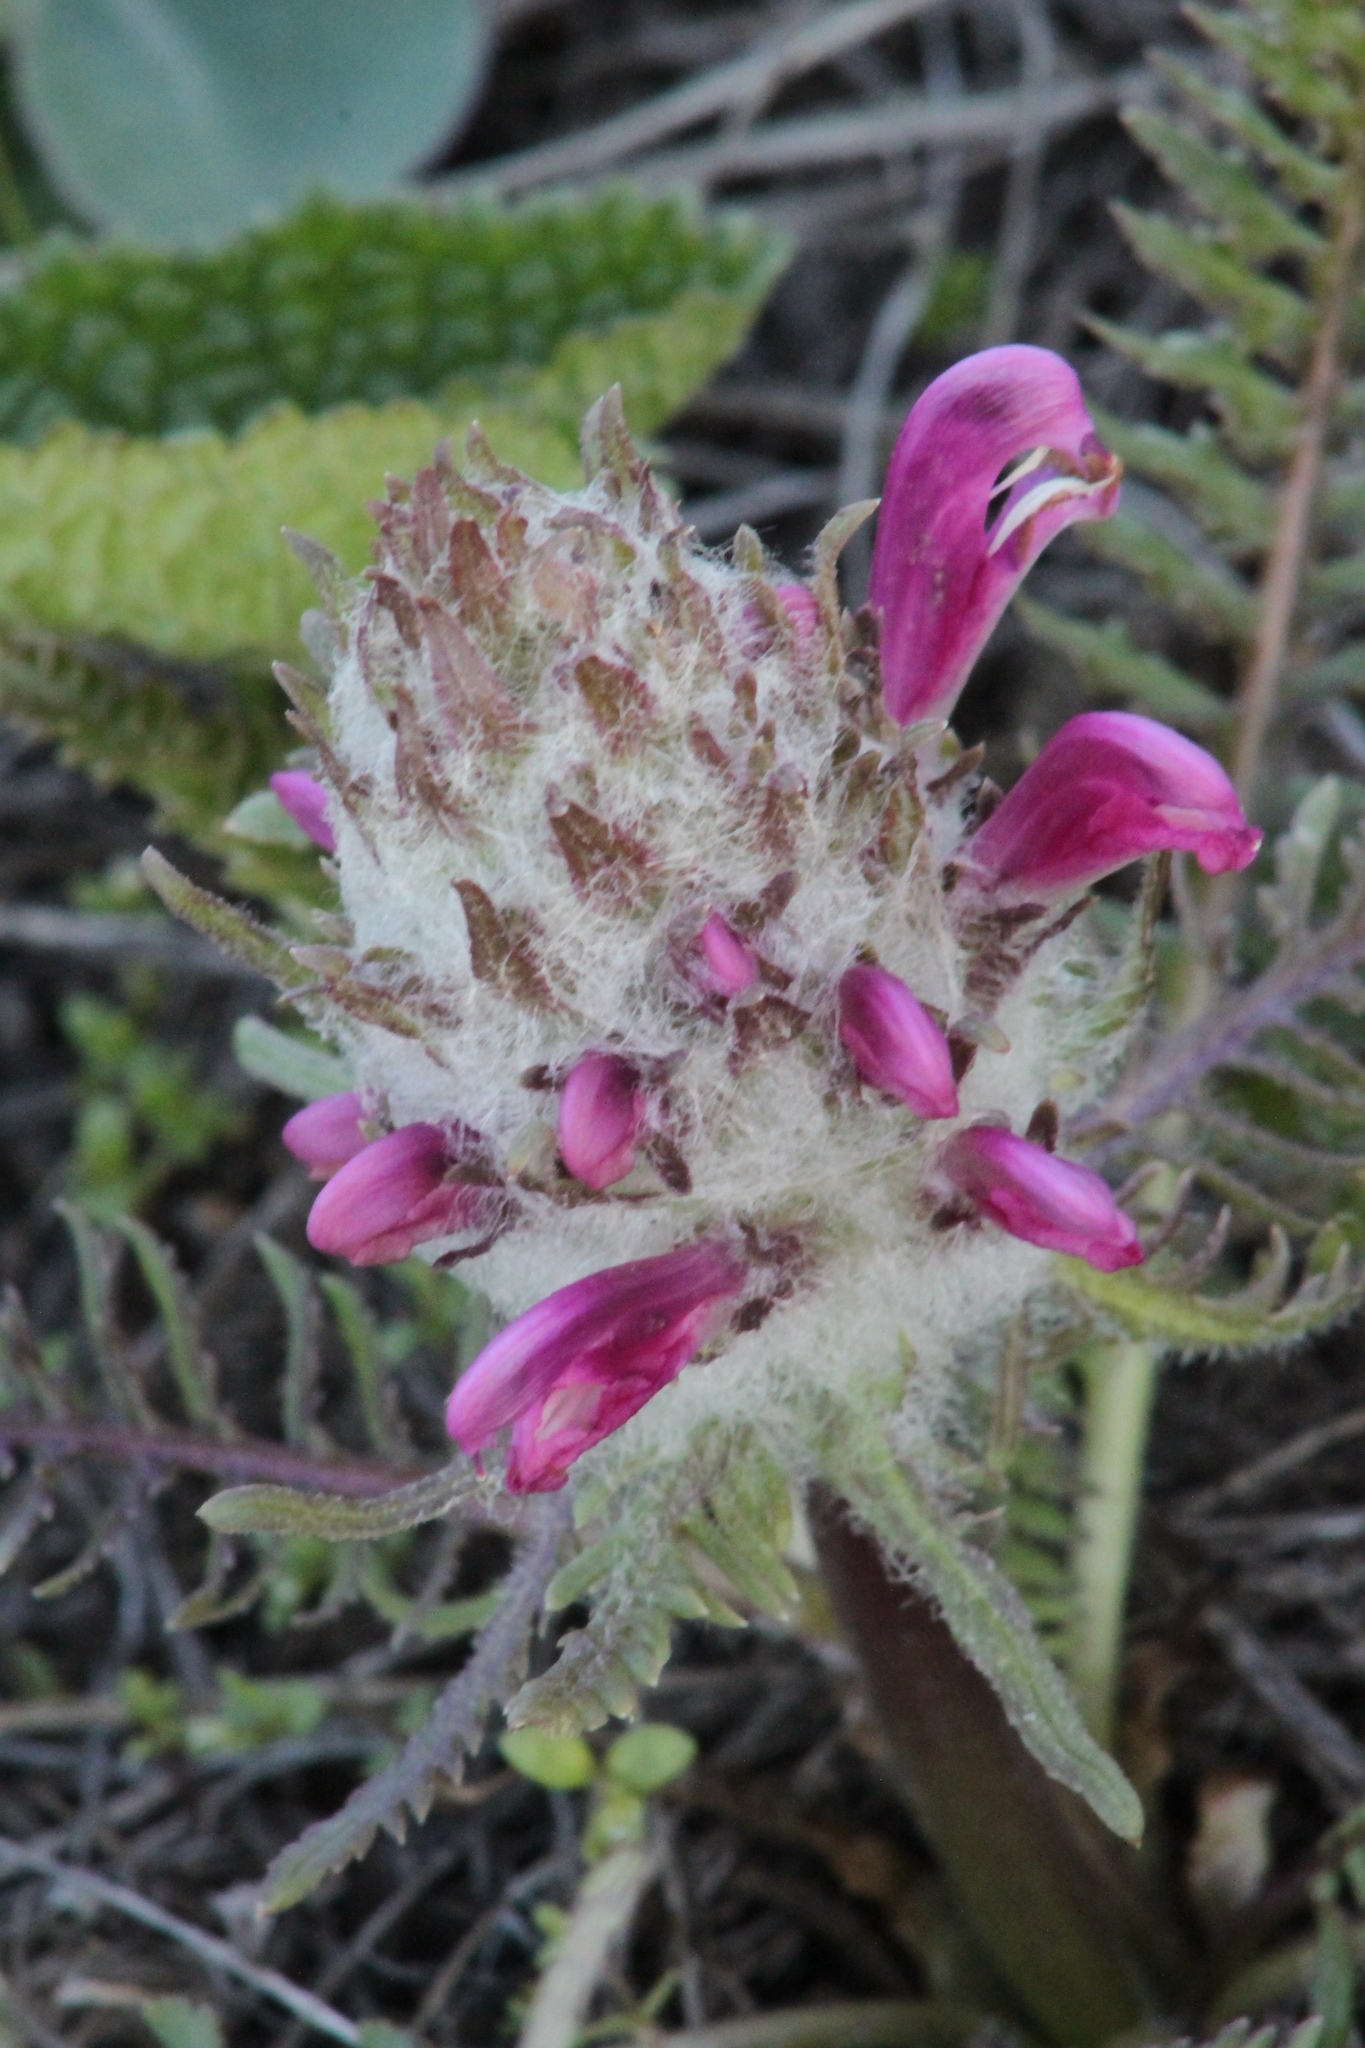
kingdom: Plantae
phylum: Tracheophyta
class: Magnoliopsida
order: Lamiales
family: Orobanchaceae
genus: Pedicularis
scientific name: Pedicularis dasystachys
